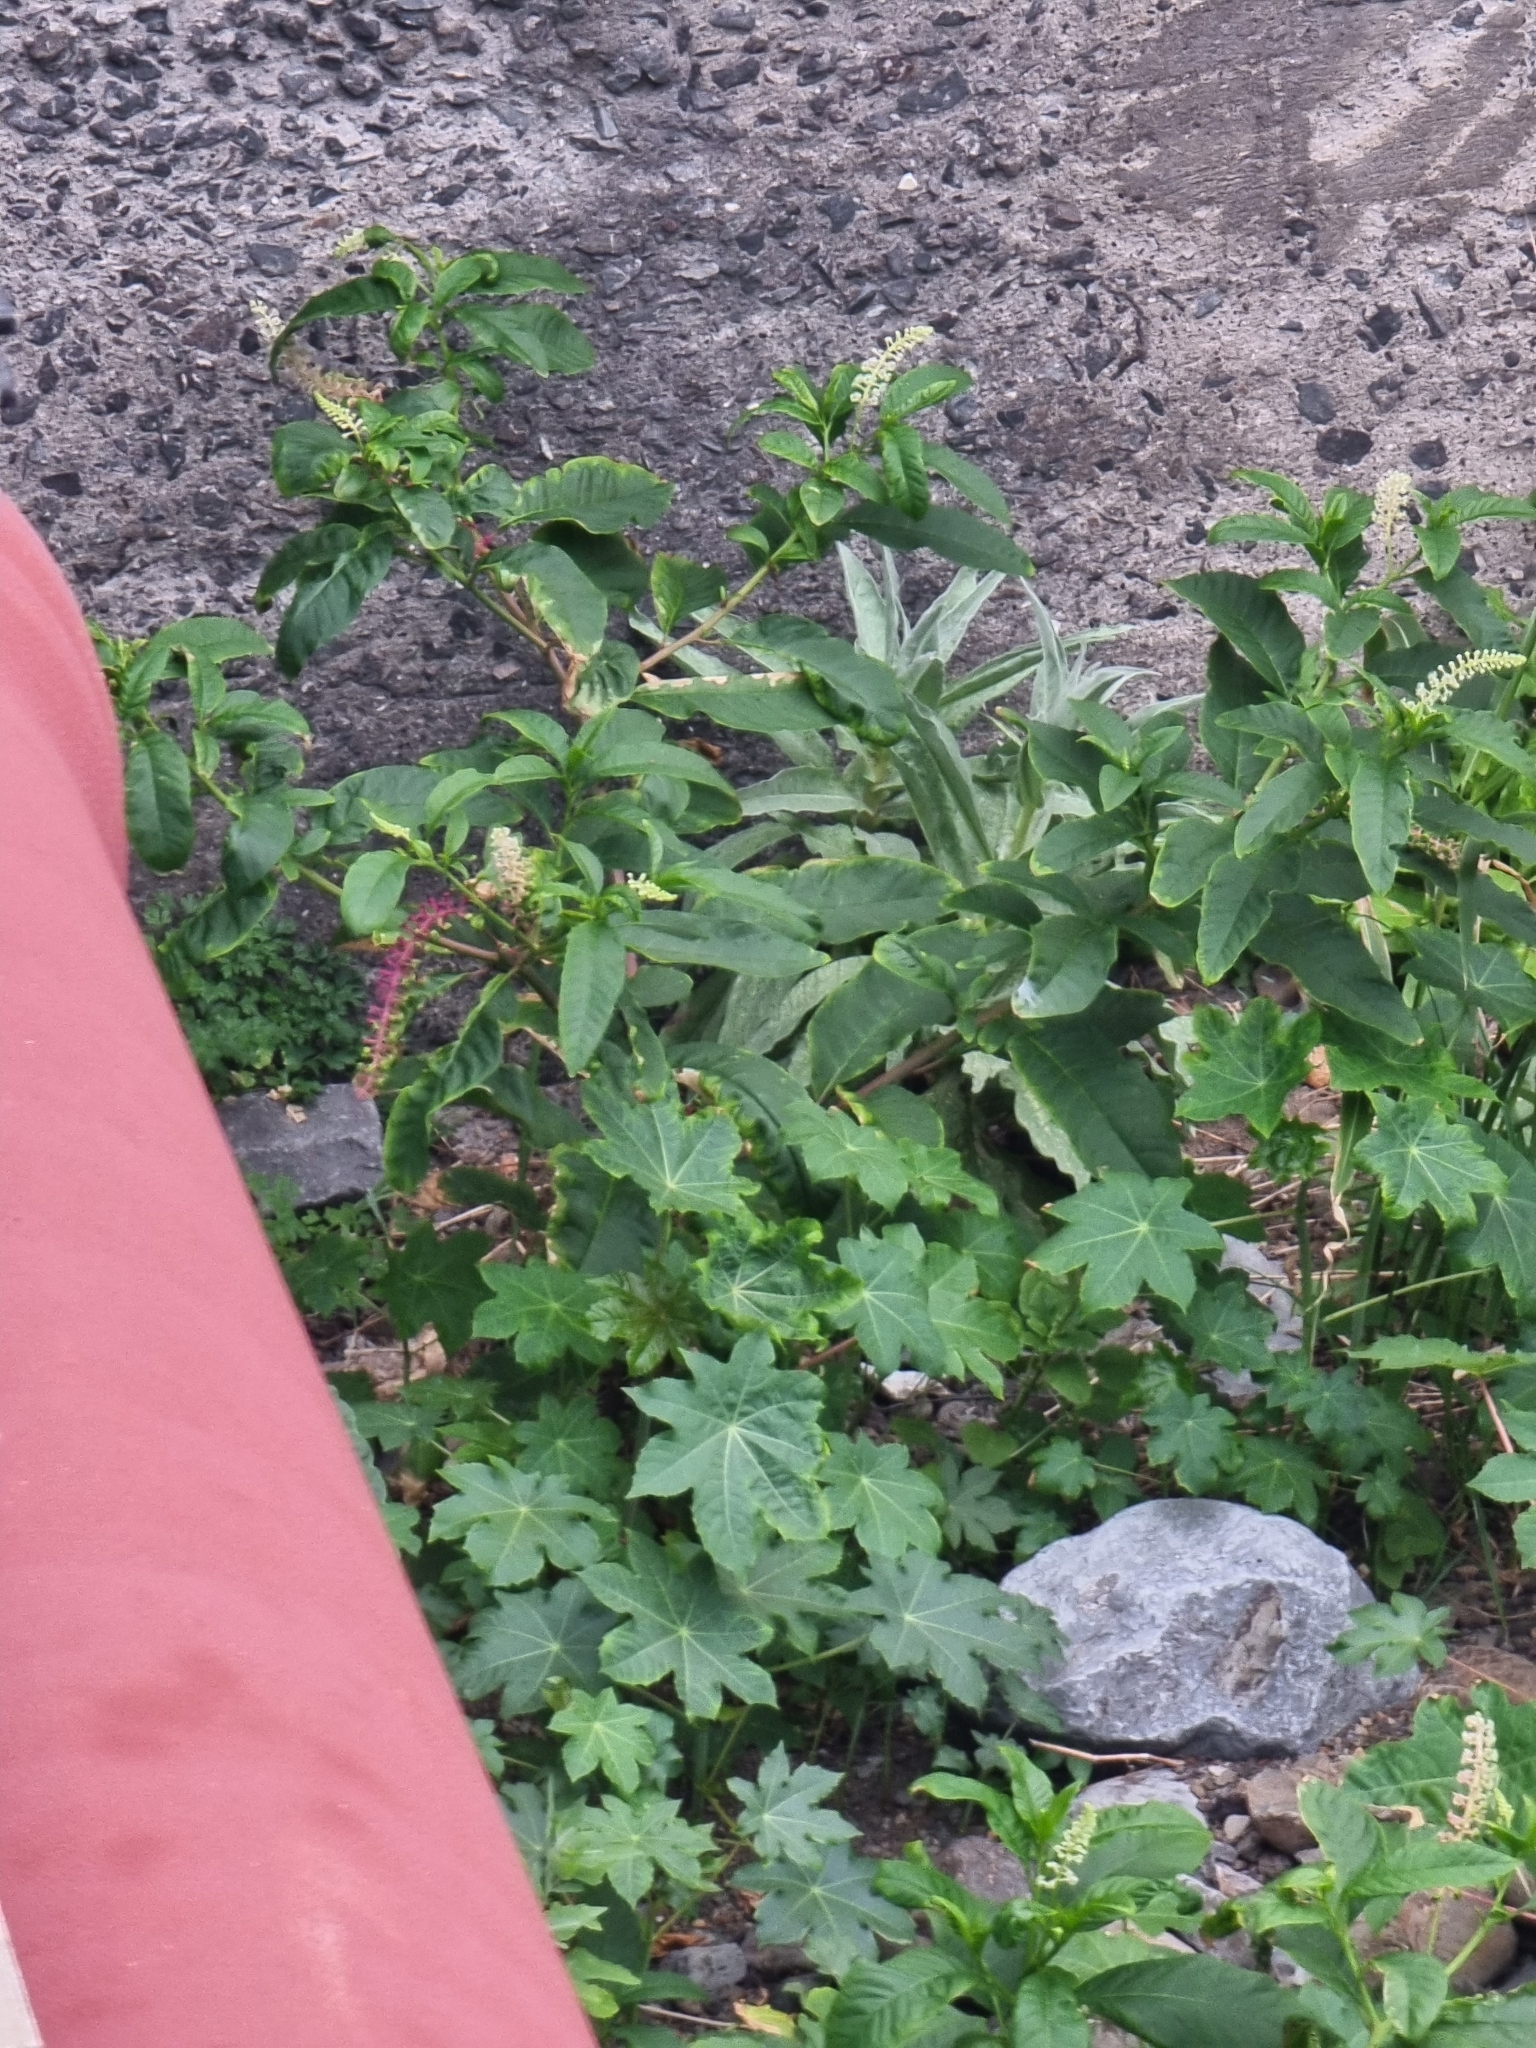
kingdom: Plantae
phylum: Tracheophyta
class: Magnoliopsida
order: Caryophyllales
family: Phytolaccaceae
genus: Phytolacca
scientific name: Phytolacca americana
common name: American pokeweed
